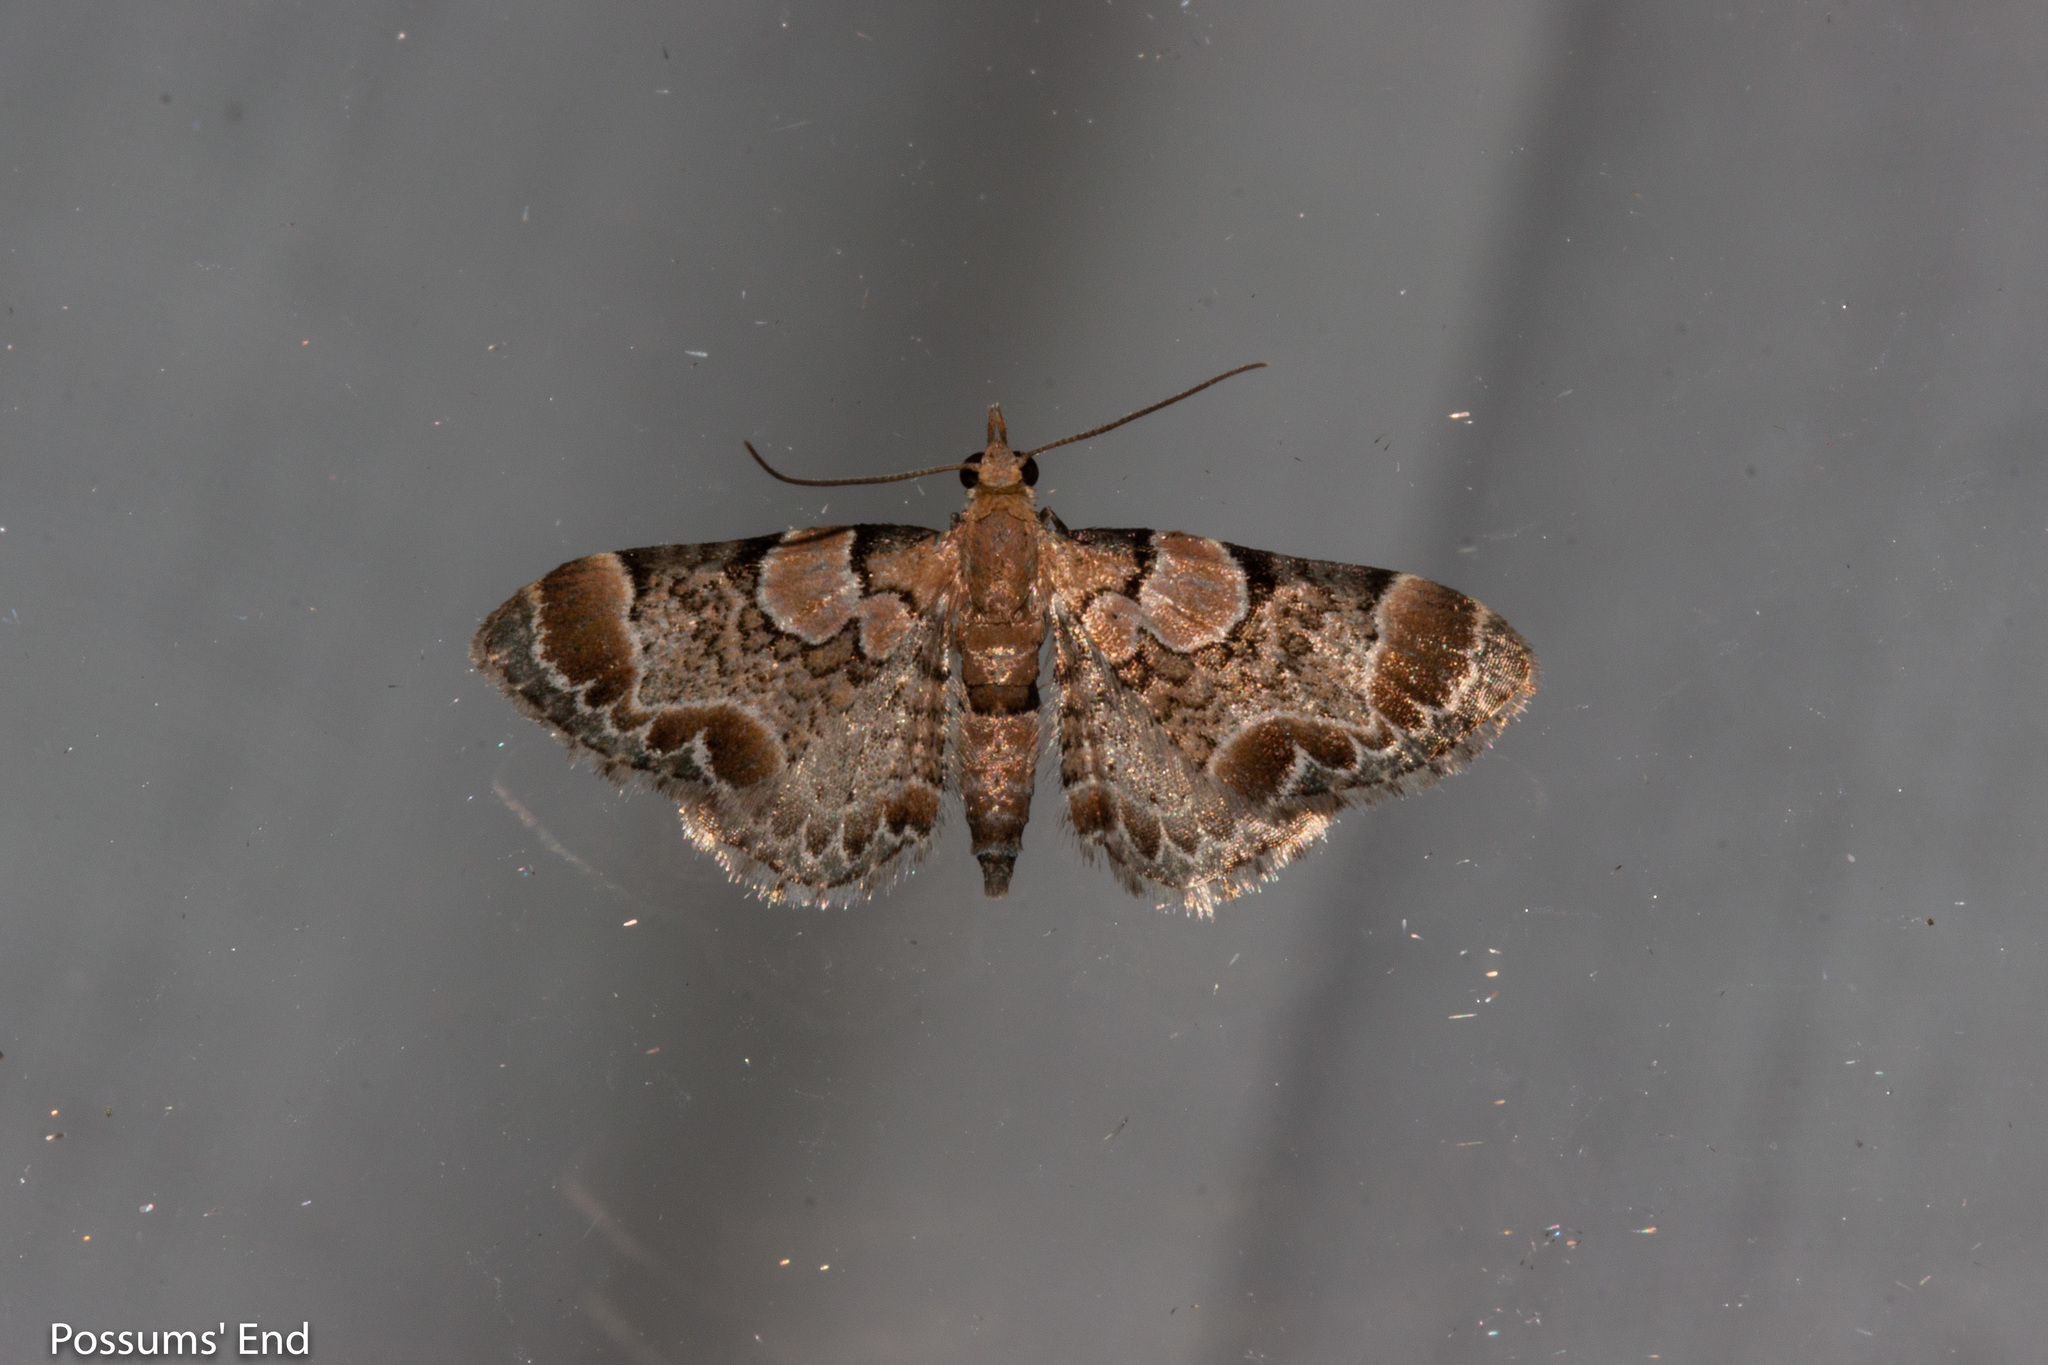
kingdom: Animalia
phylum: Arthropoda
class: Insecta
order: Lepidoptera
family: Geometridae
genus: Chloroclystis
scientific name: Chloroclystis
